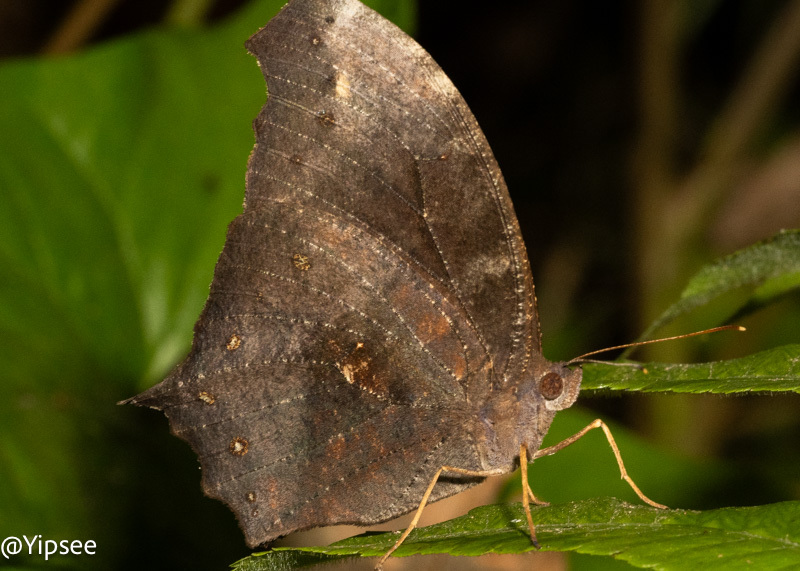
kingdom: Animalia
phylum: Arthropoda
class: Insecta
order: Lepidoptera
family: Nymphalidae
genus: Melanitis
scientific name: Melanitis zitenius
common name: Great evening brown
